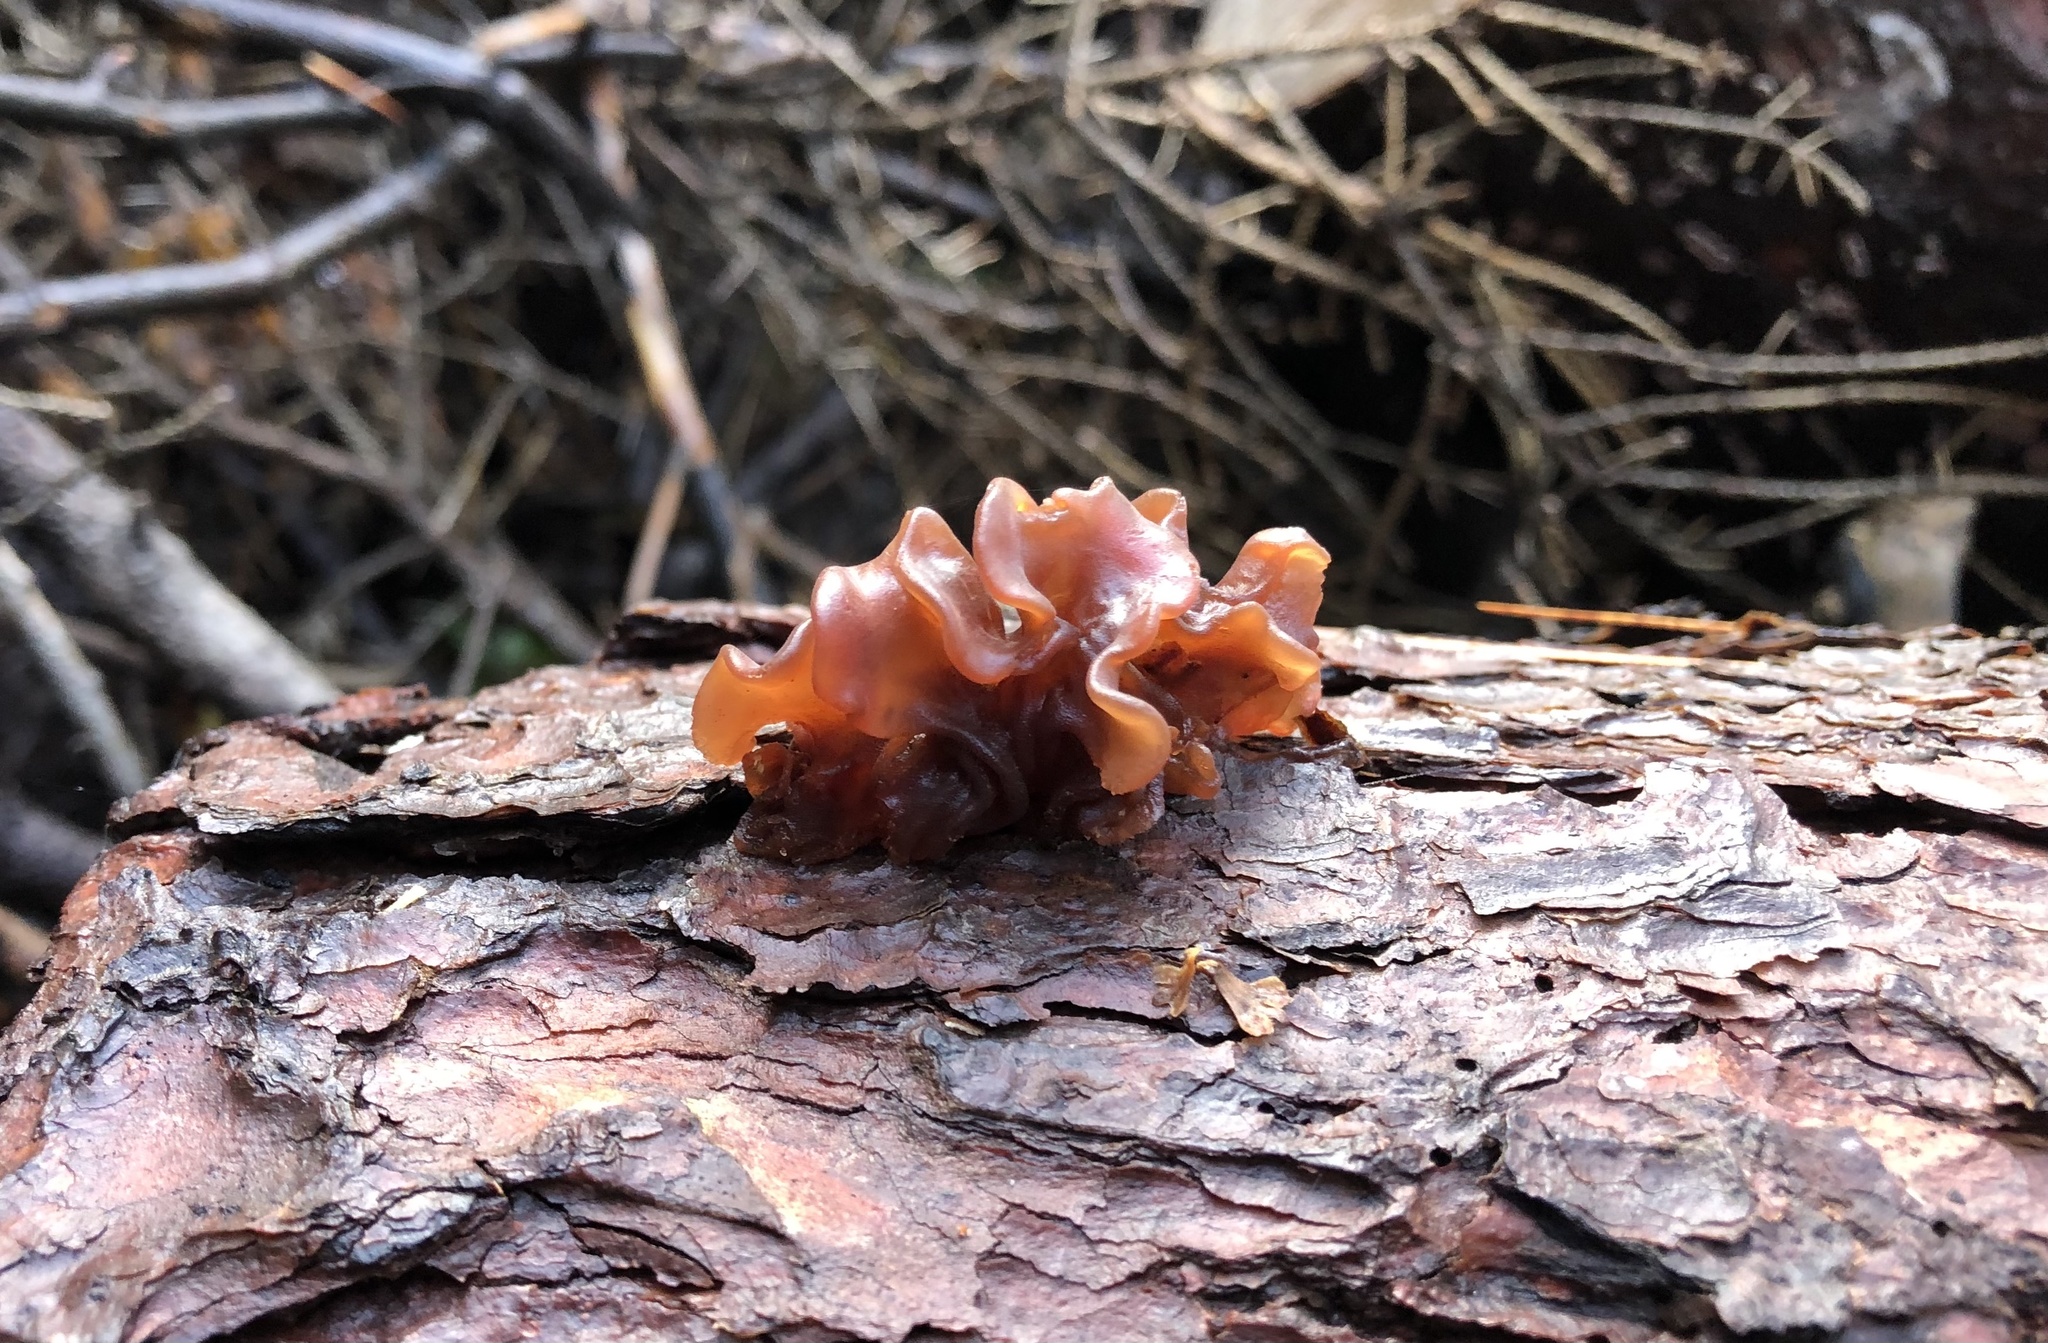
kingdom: Fungi
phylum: Basidiomycota
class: Tremellomycetes
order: Tremellales
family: Tremellaceae
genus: Phaeotremella
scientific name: Phaeotremella foliacea
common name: Leafy brain
